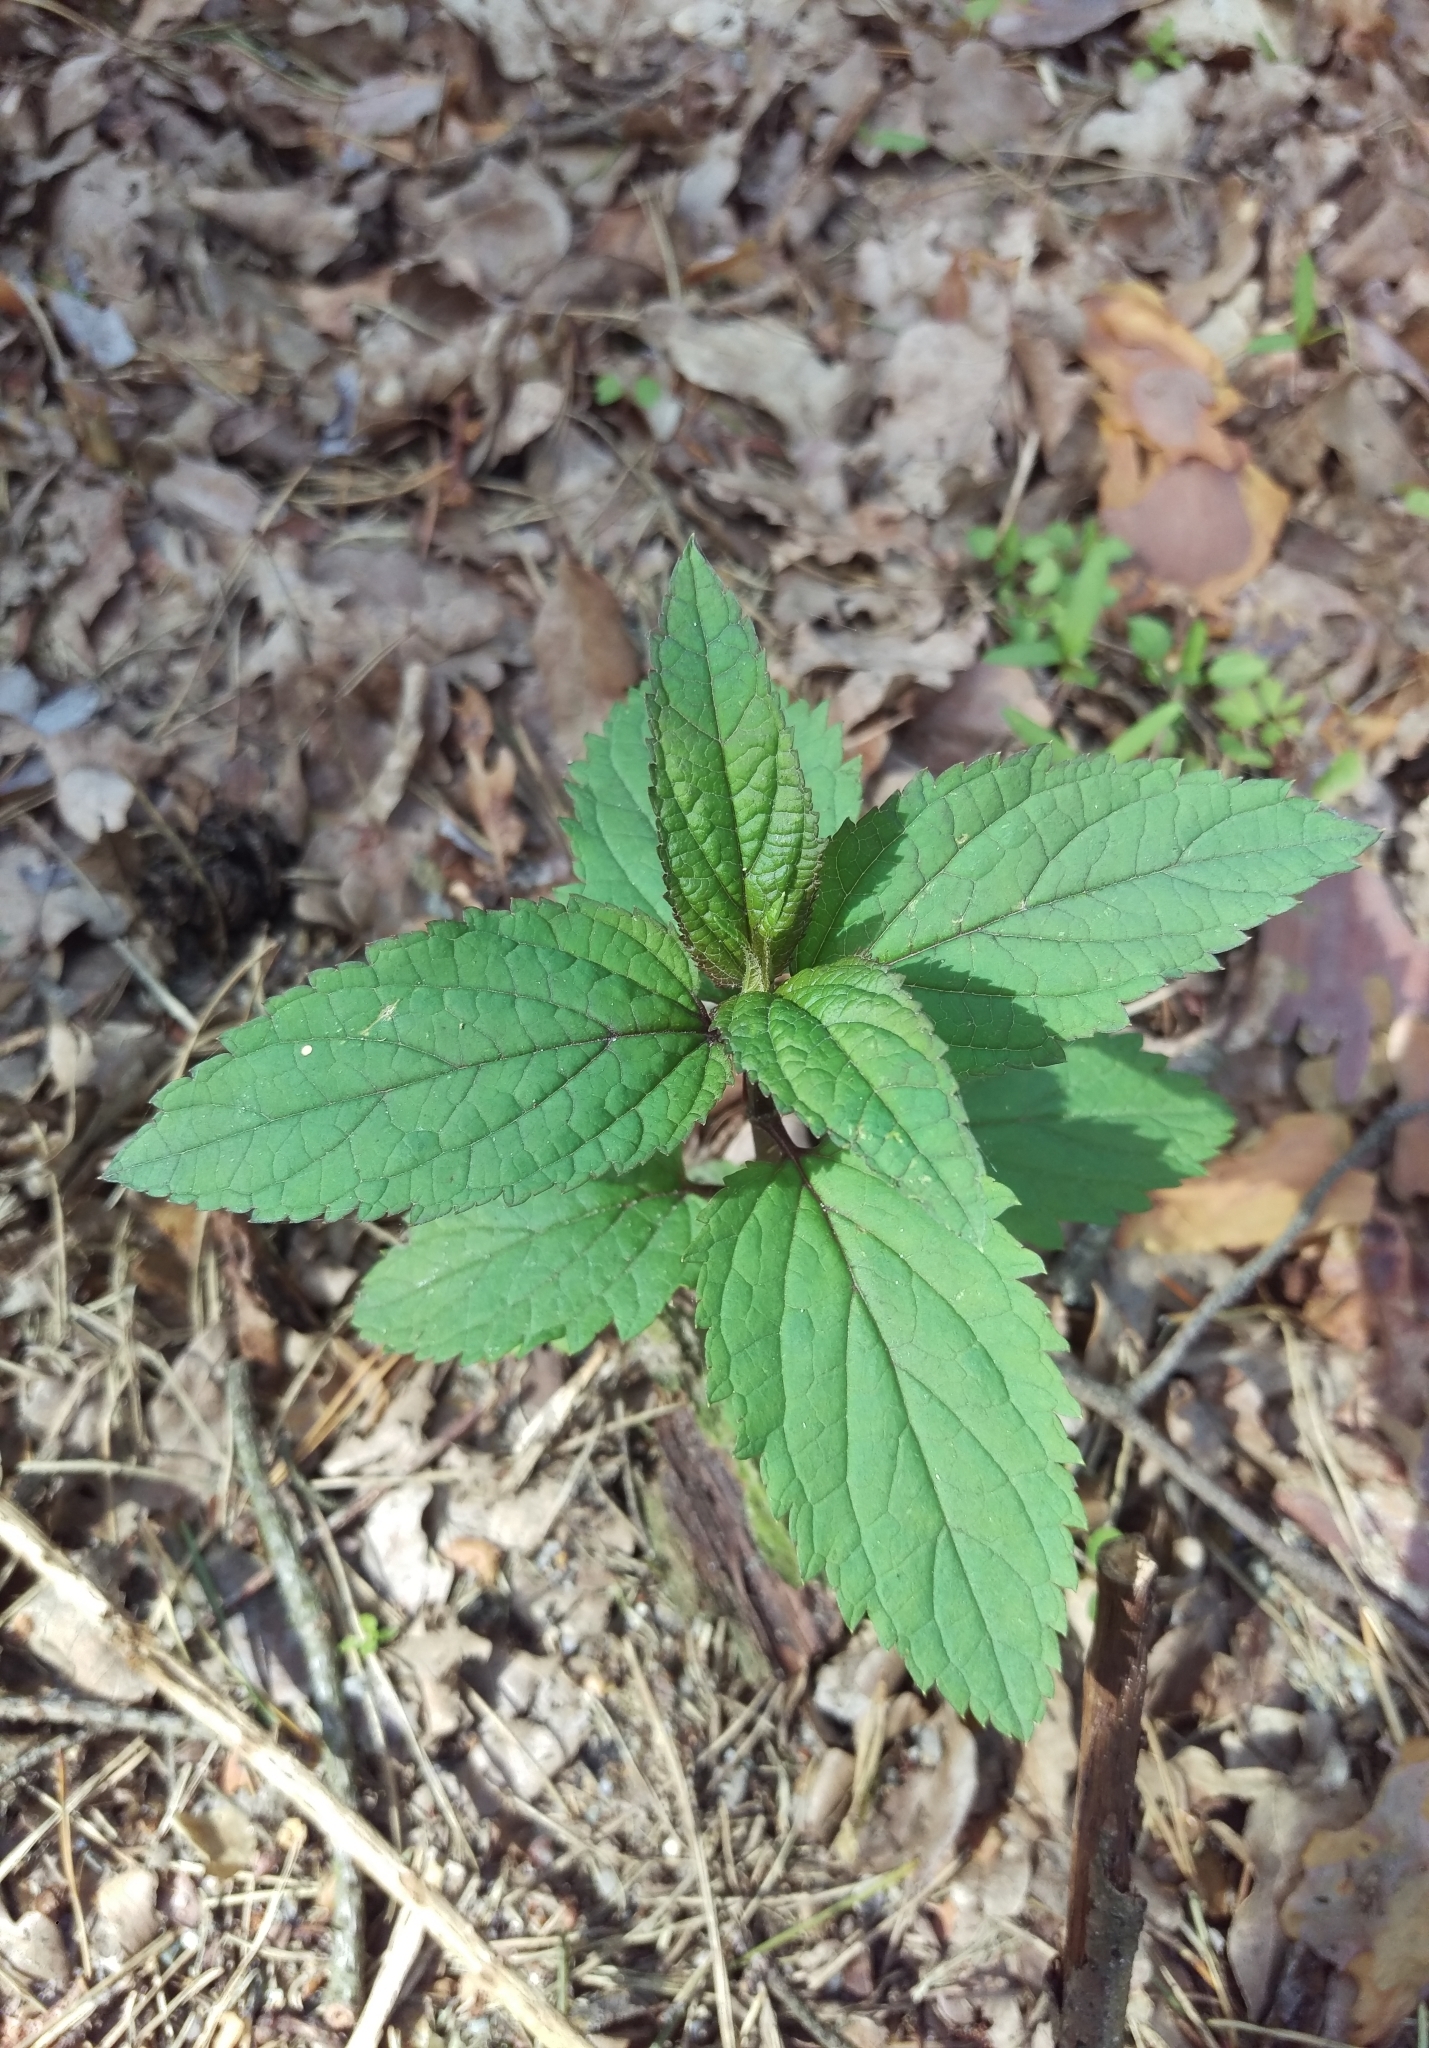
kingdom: Plantae
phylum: Tracheophyta
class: Magnoliopsida
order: Lamiales
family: Scrophulariaceae
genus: Scrophularia
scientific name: Scrophularia nodosa
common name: Common figwort
